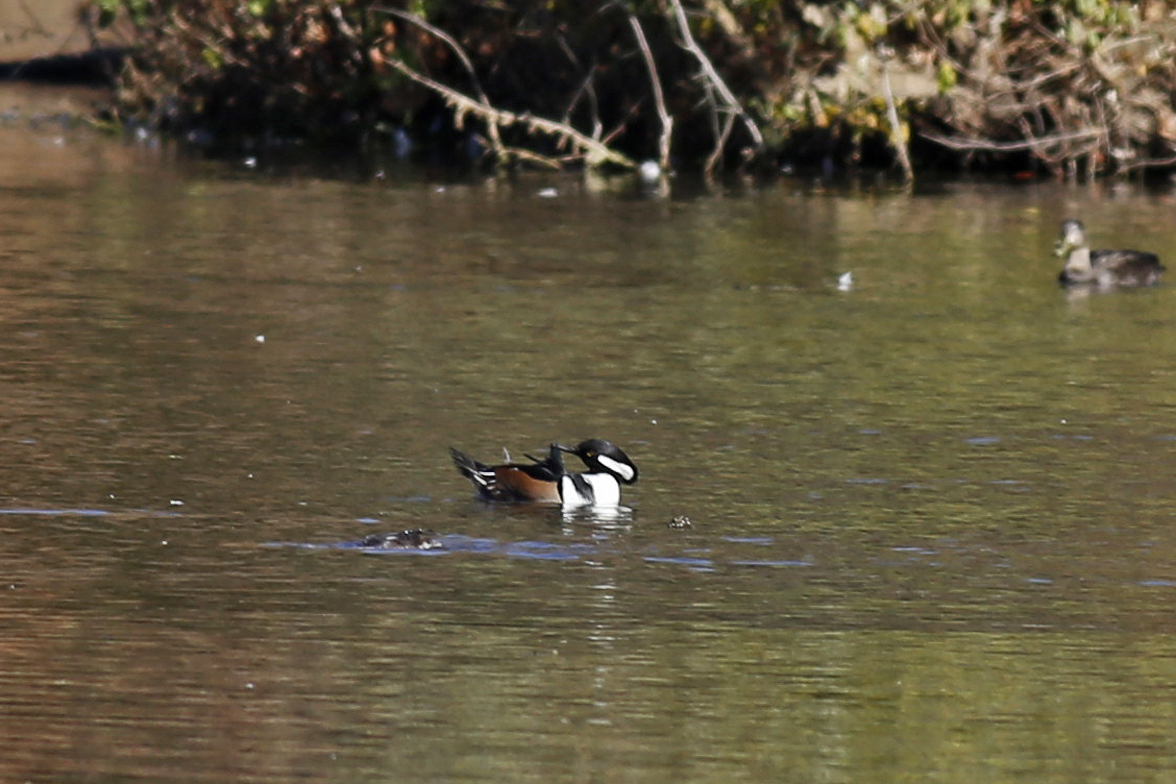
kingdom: Animalia
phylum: Chordata
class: Aves
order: Anseriformes
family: Anatidae
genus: Lophodytes
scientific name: Lophodytes cucullatus
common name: Hooded merganser
